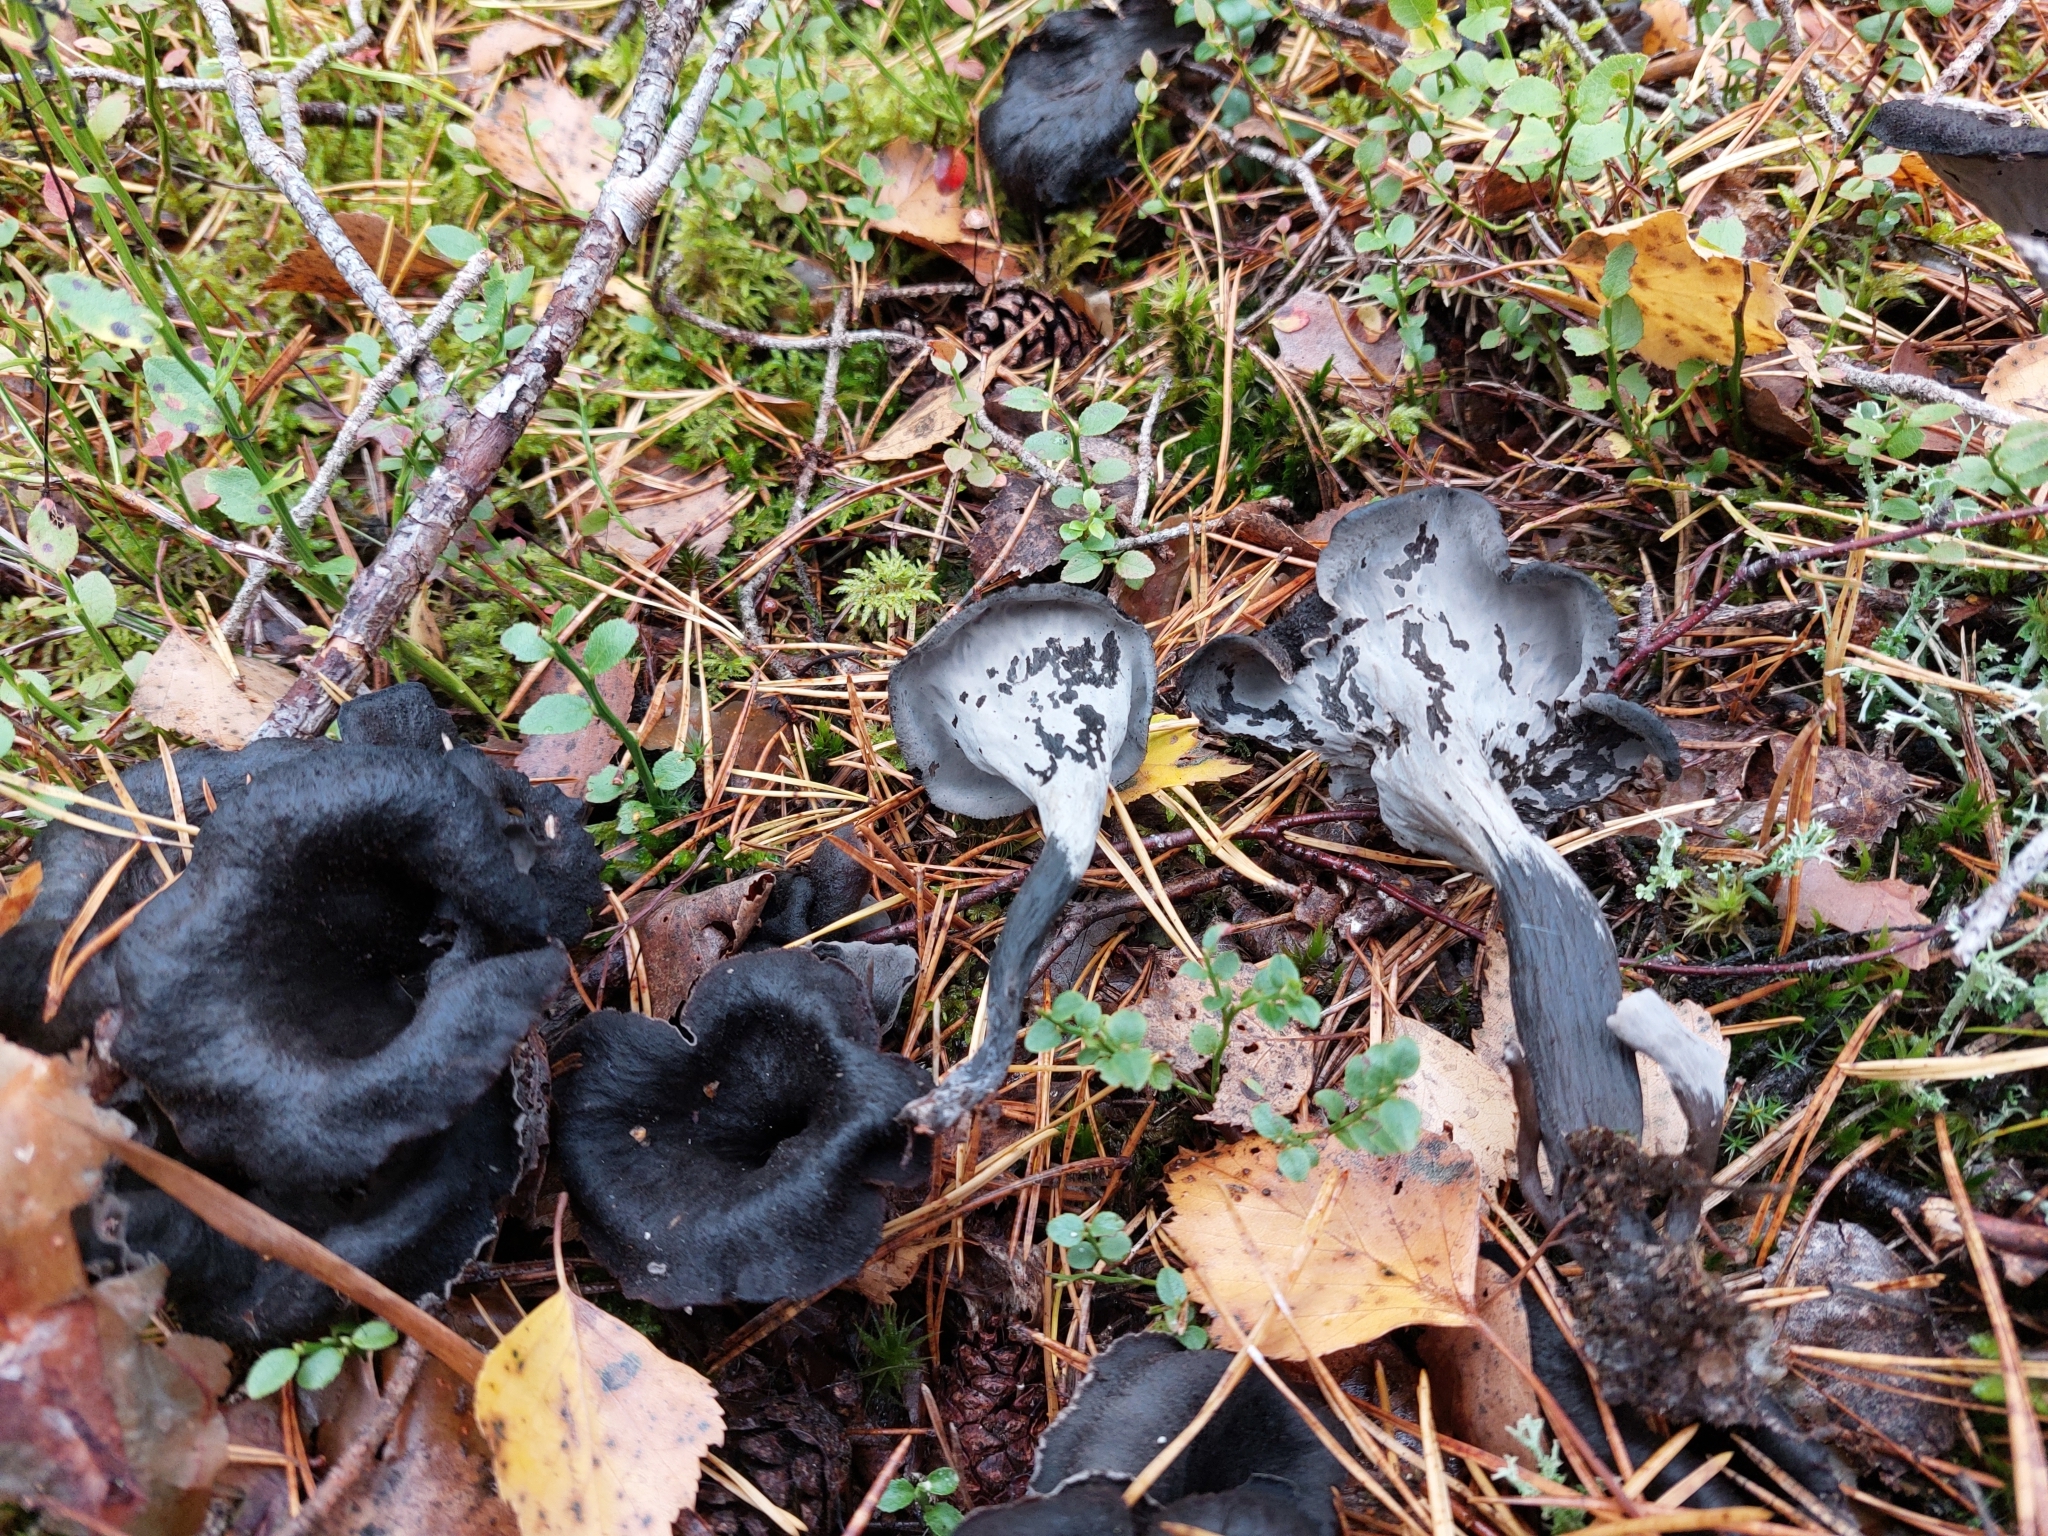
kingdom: Fungi
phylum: Basidiomycota
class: Agaricomycetes
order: Cantharellales
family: Hydnaceae
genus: Craterellus
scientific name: Craterellus cornucopioides
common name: Horn of plenty
